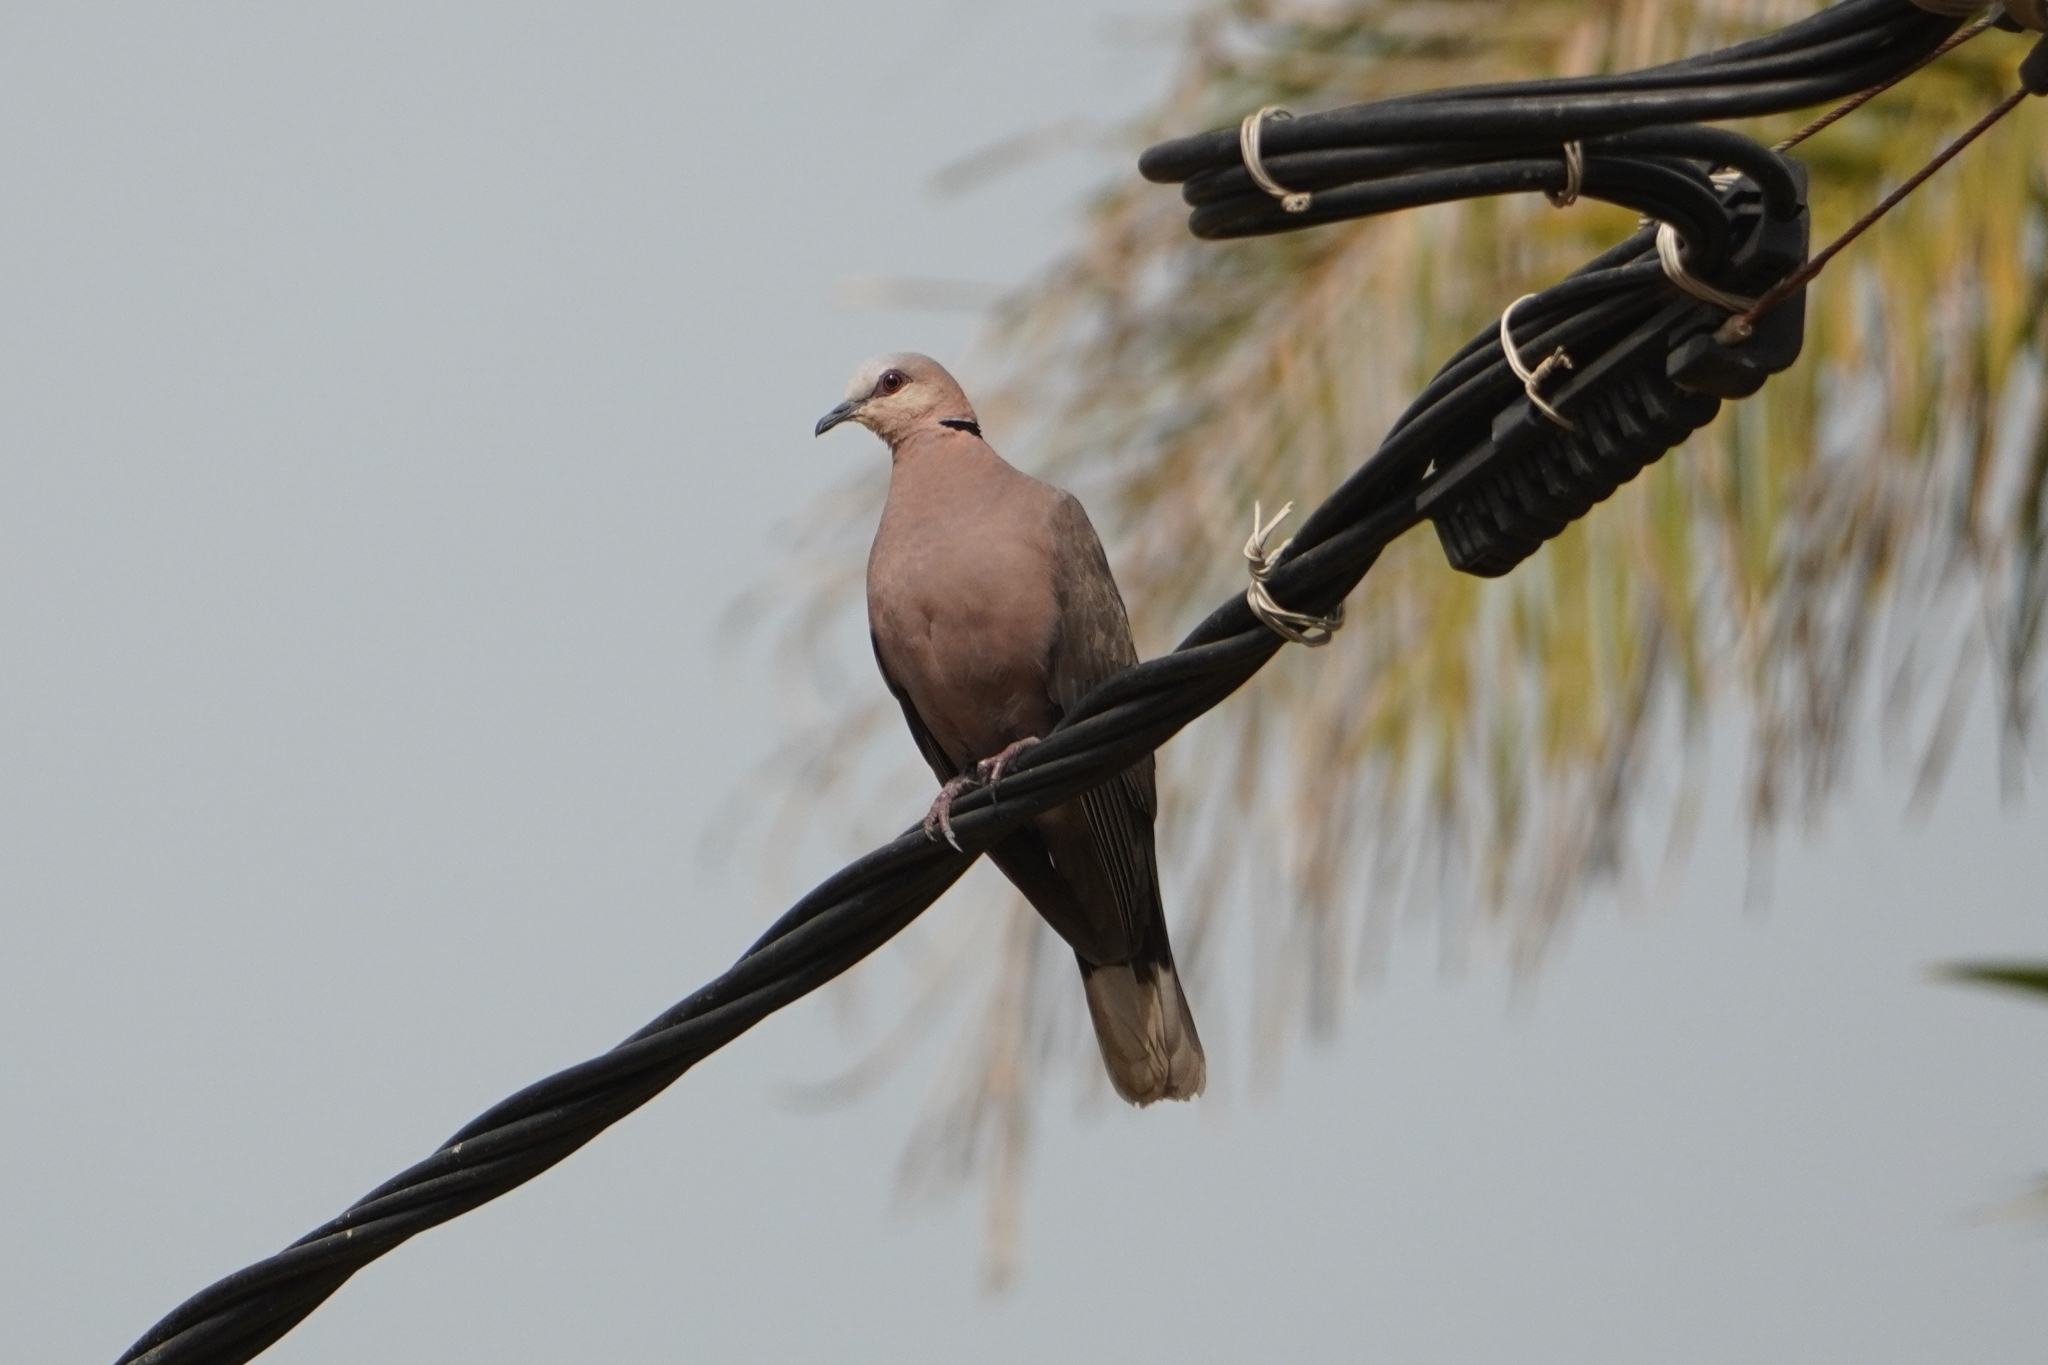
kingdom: Animalia
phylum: Chordata
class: Aves
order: Columbiformes
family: Columbidae
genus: Streptopelia
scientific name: Streptopelia semitorquata
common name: Red-eyed dove
